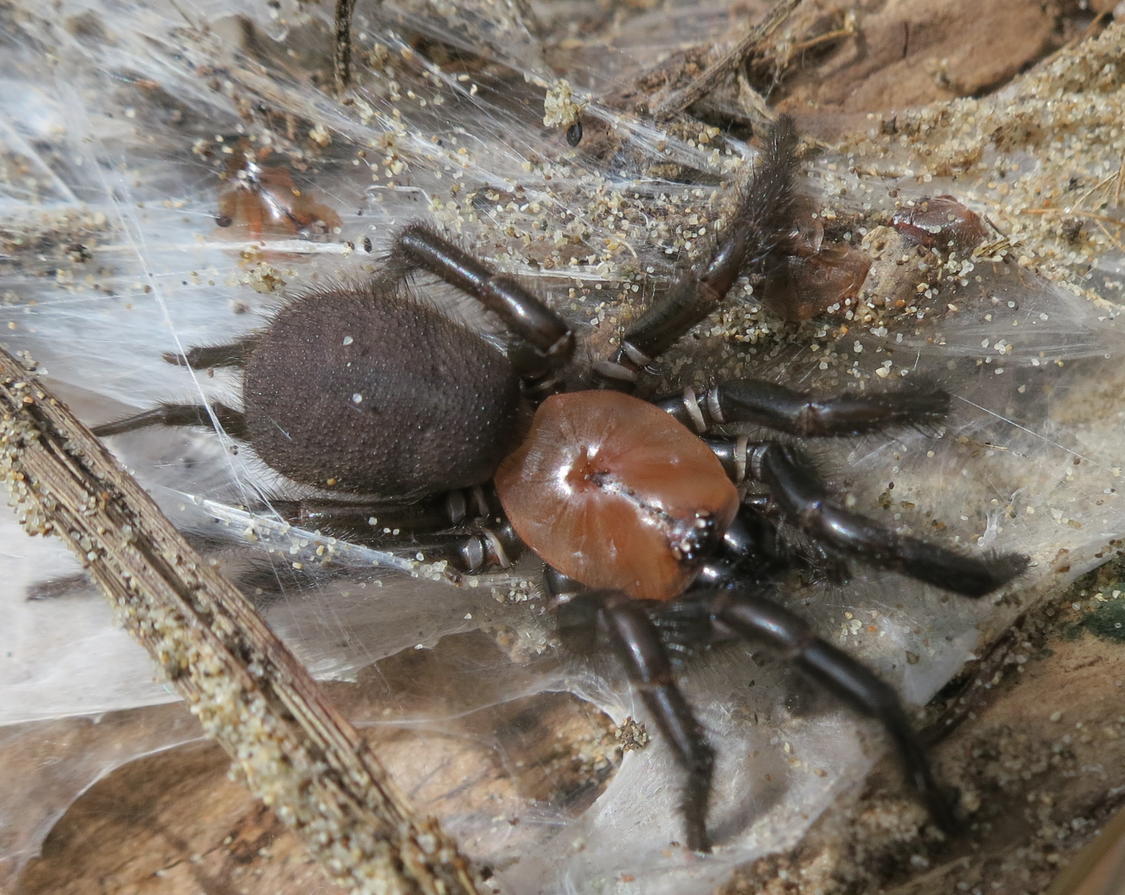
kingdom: Animalia
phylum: Arthropoda
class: Arachnida
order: Araneae
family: Porrhothelidae
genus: Porrhothele
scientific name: Porrhothele antipodiana
